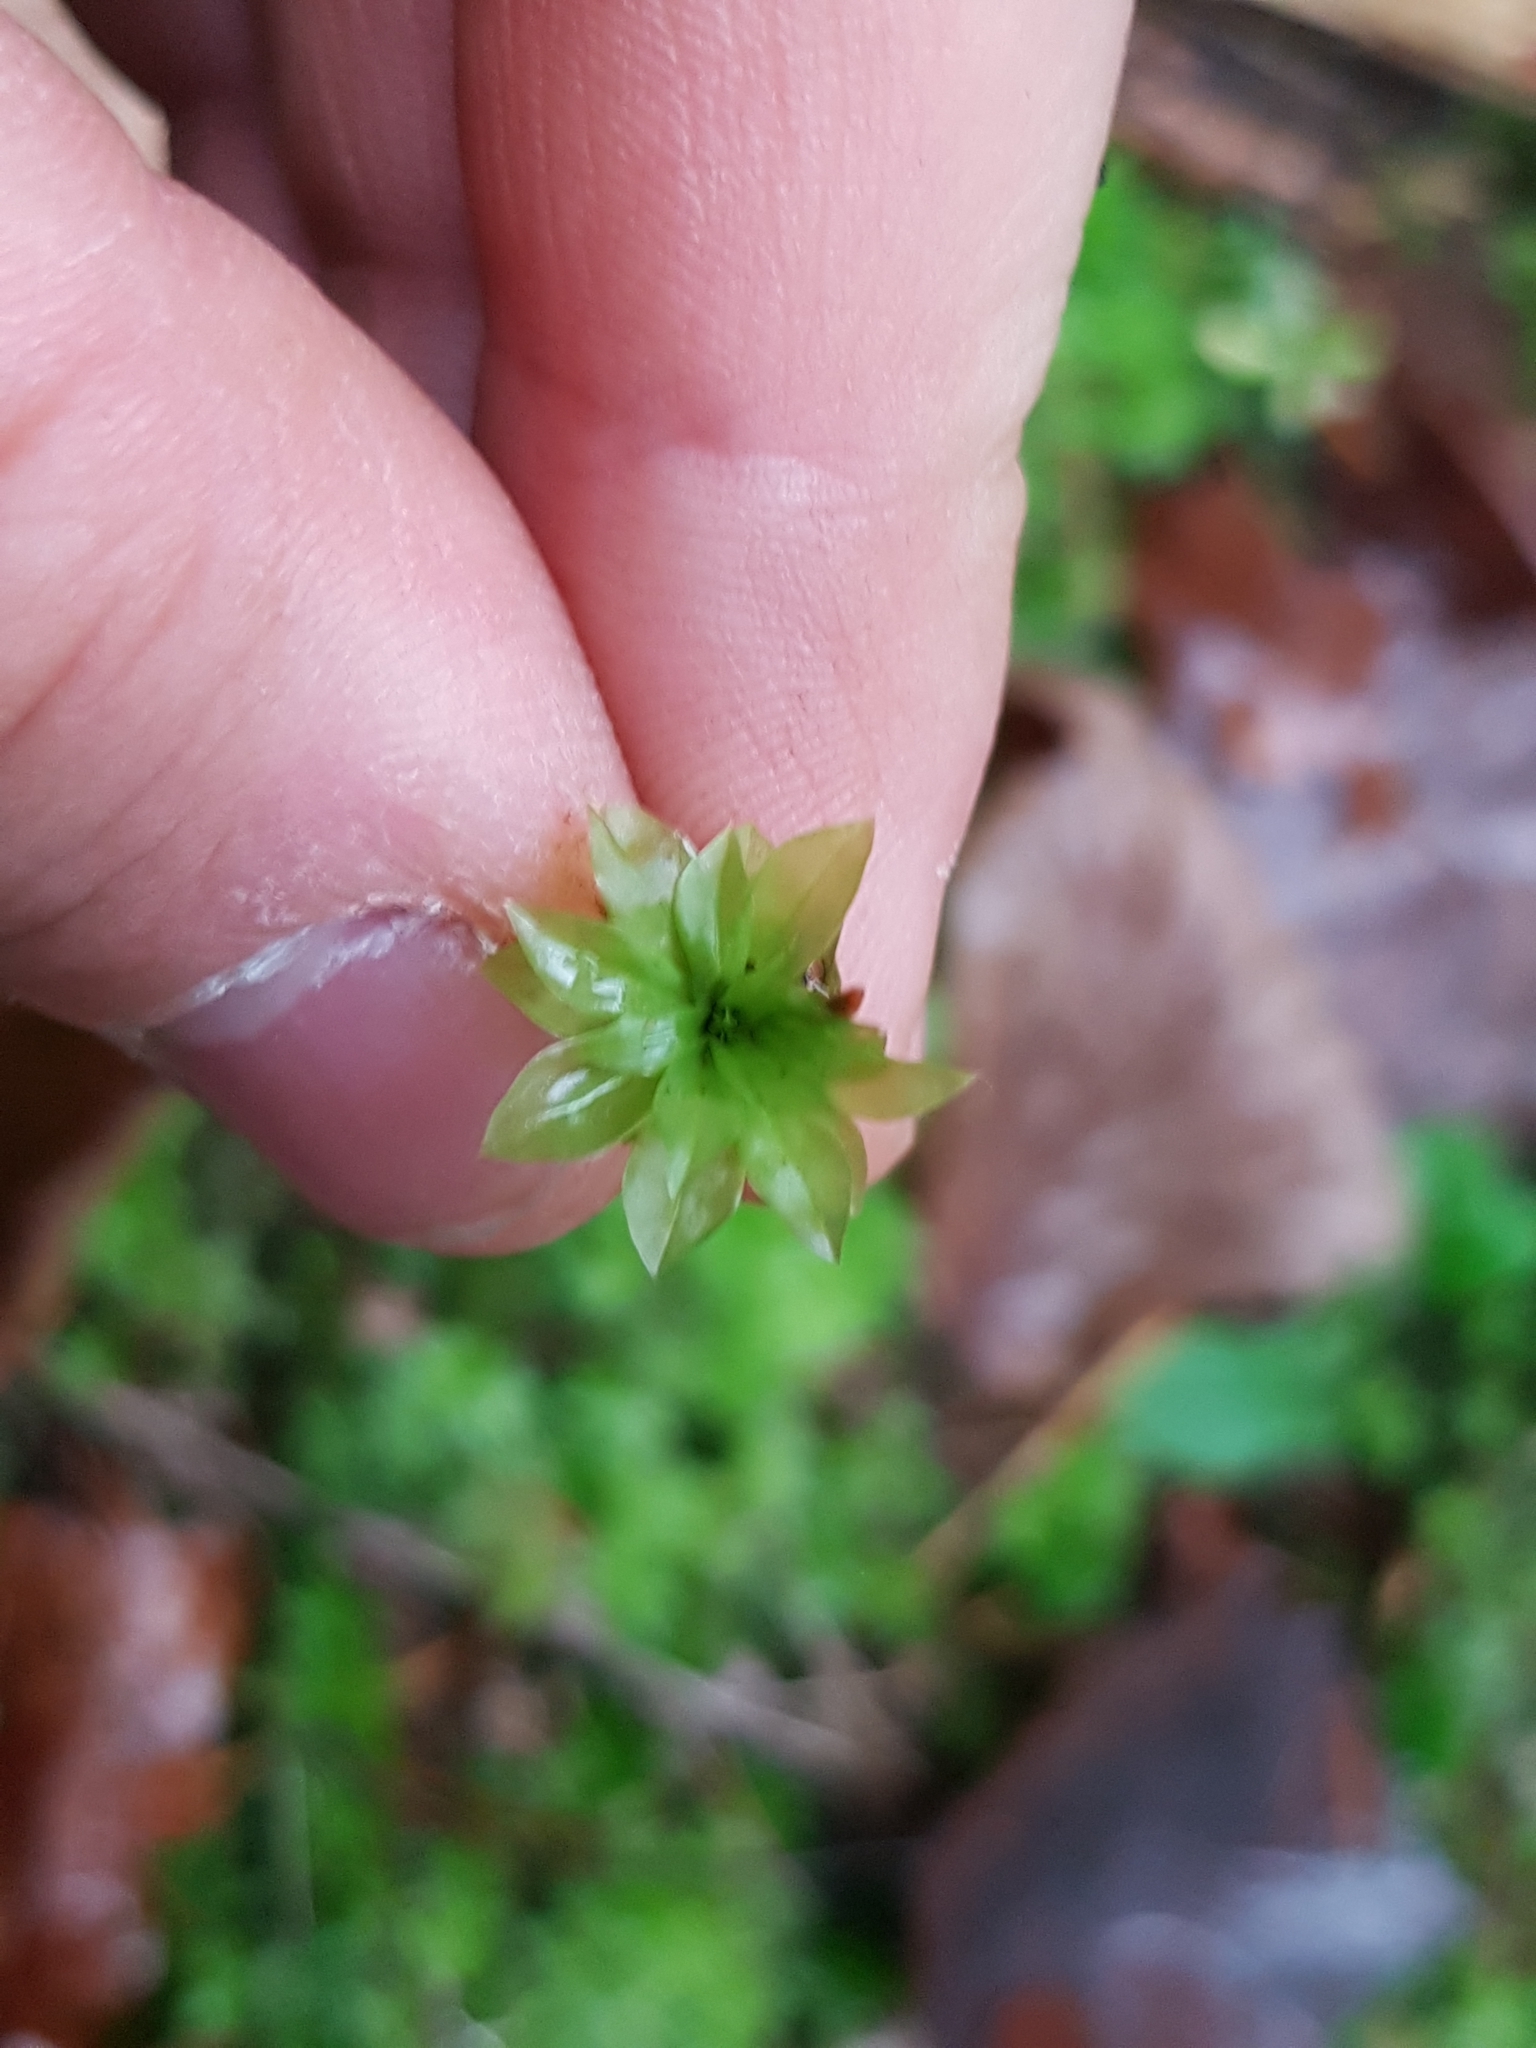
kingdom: Plantae
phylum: Bryophyta
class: Bryopsida
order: Bryales
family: Bryaceae
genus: Rhodobryum
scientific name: Rhodobryum roseum
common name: Rose-moss
